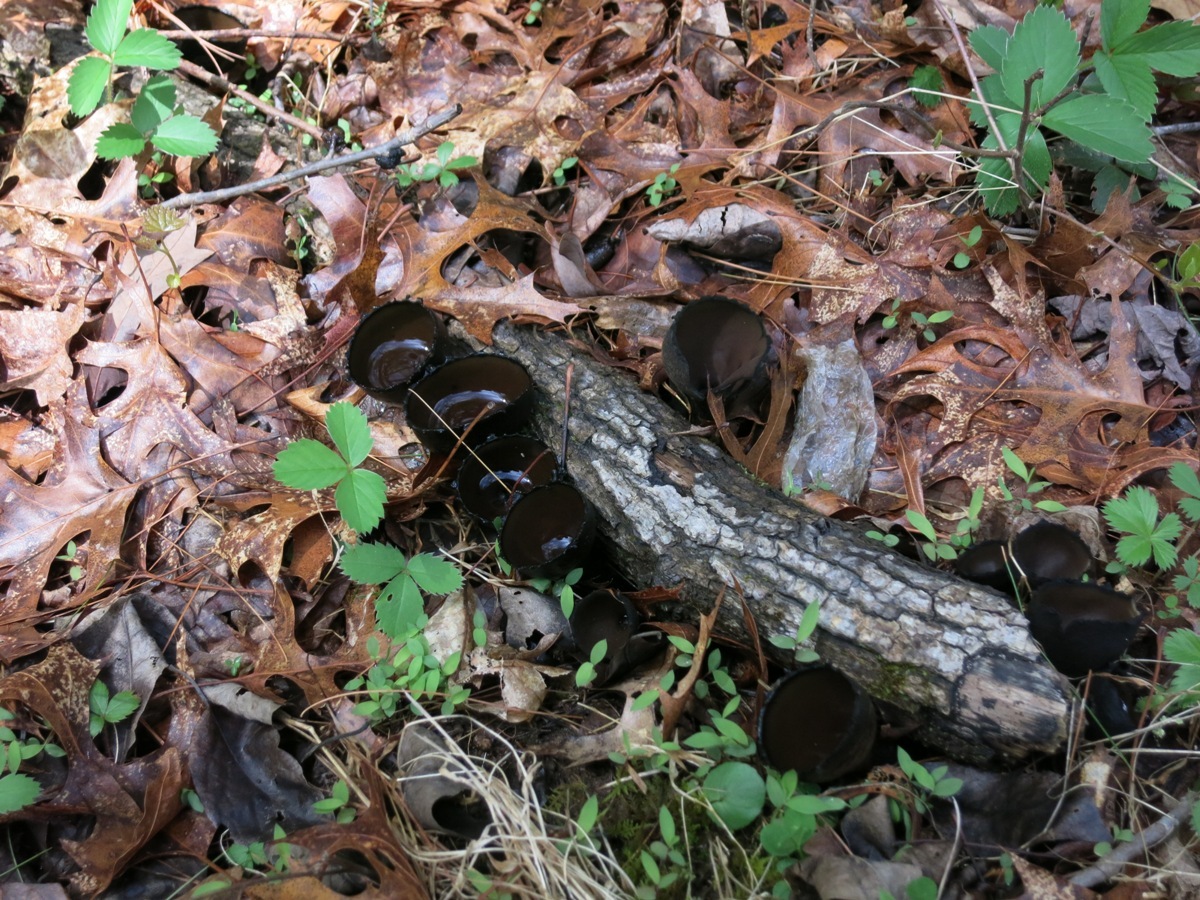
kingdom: Fungi
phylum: Ascomycota
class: Pezizomycetes
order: Pezizales
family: Sarcosomataceae
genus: Urnula
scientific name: Urnula craterium
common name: Devil's urn
